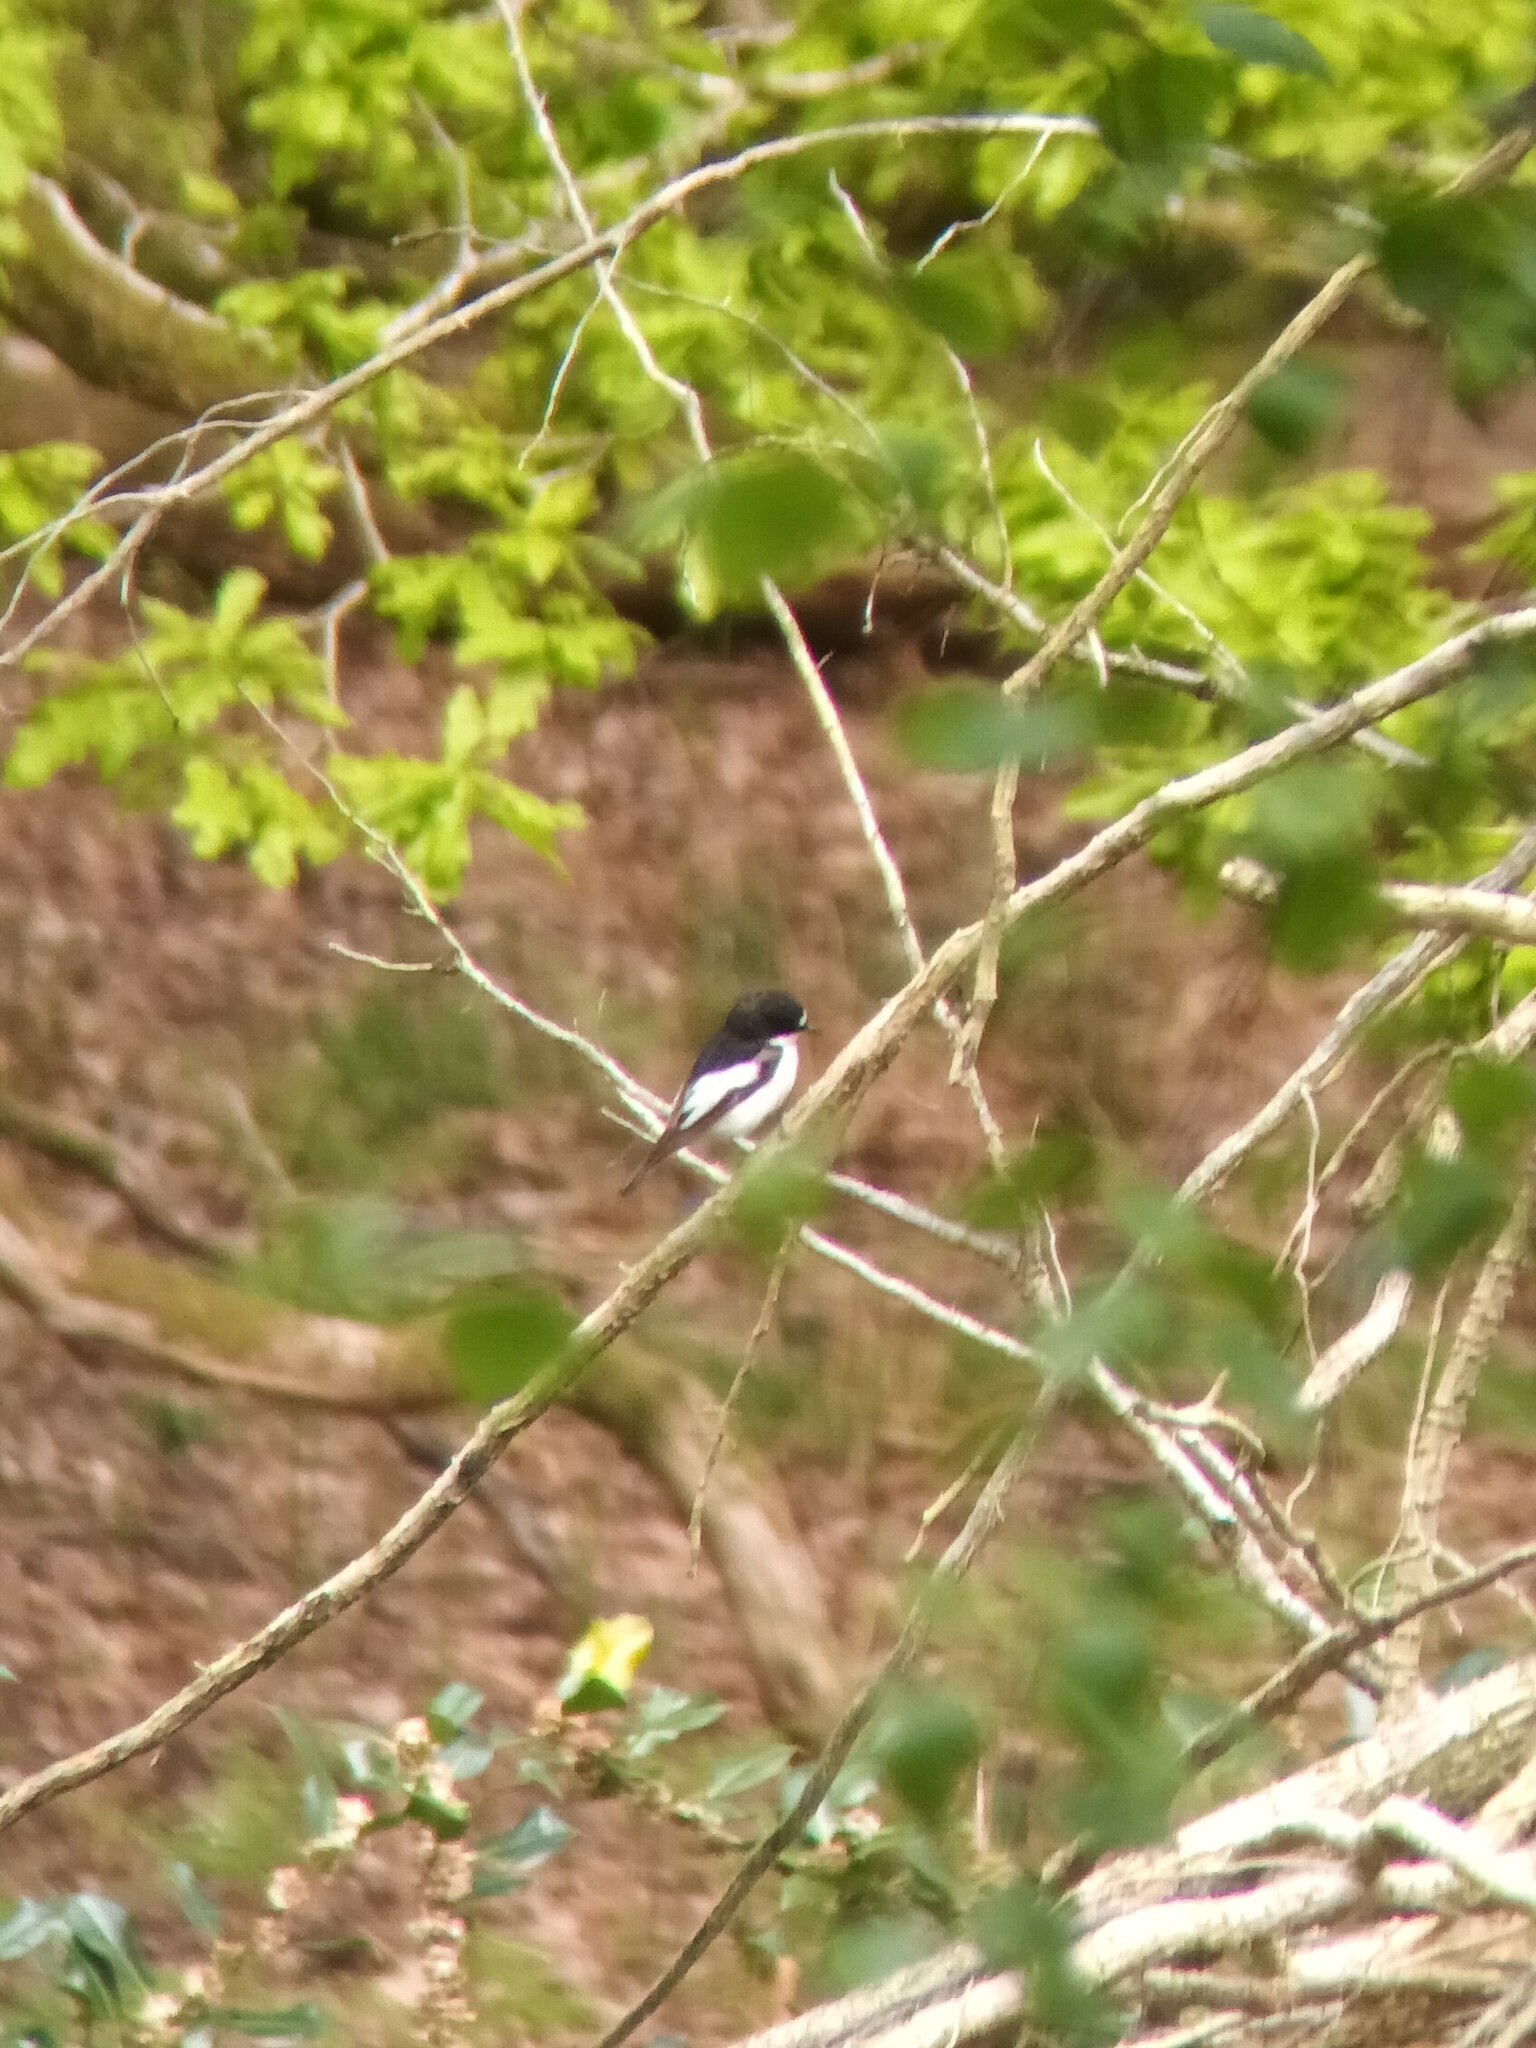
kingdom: Animalia
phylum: Chordata
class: Aves
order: Passeriformes
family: Muscicapidae
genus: Ficedula
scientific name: Ficedula hypoleuca
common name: European pied flycatcher
